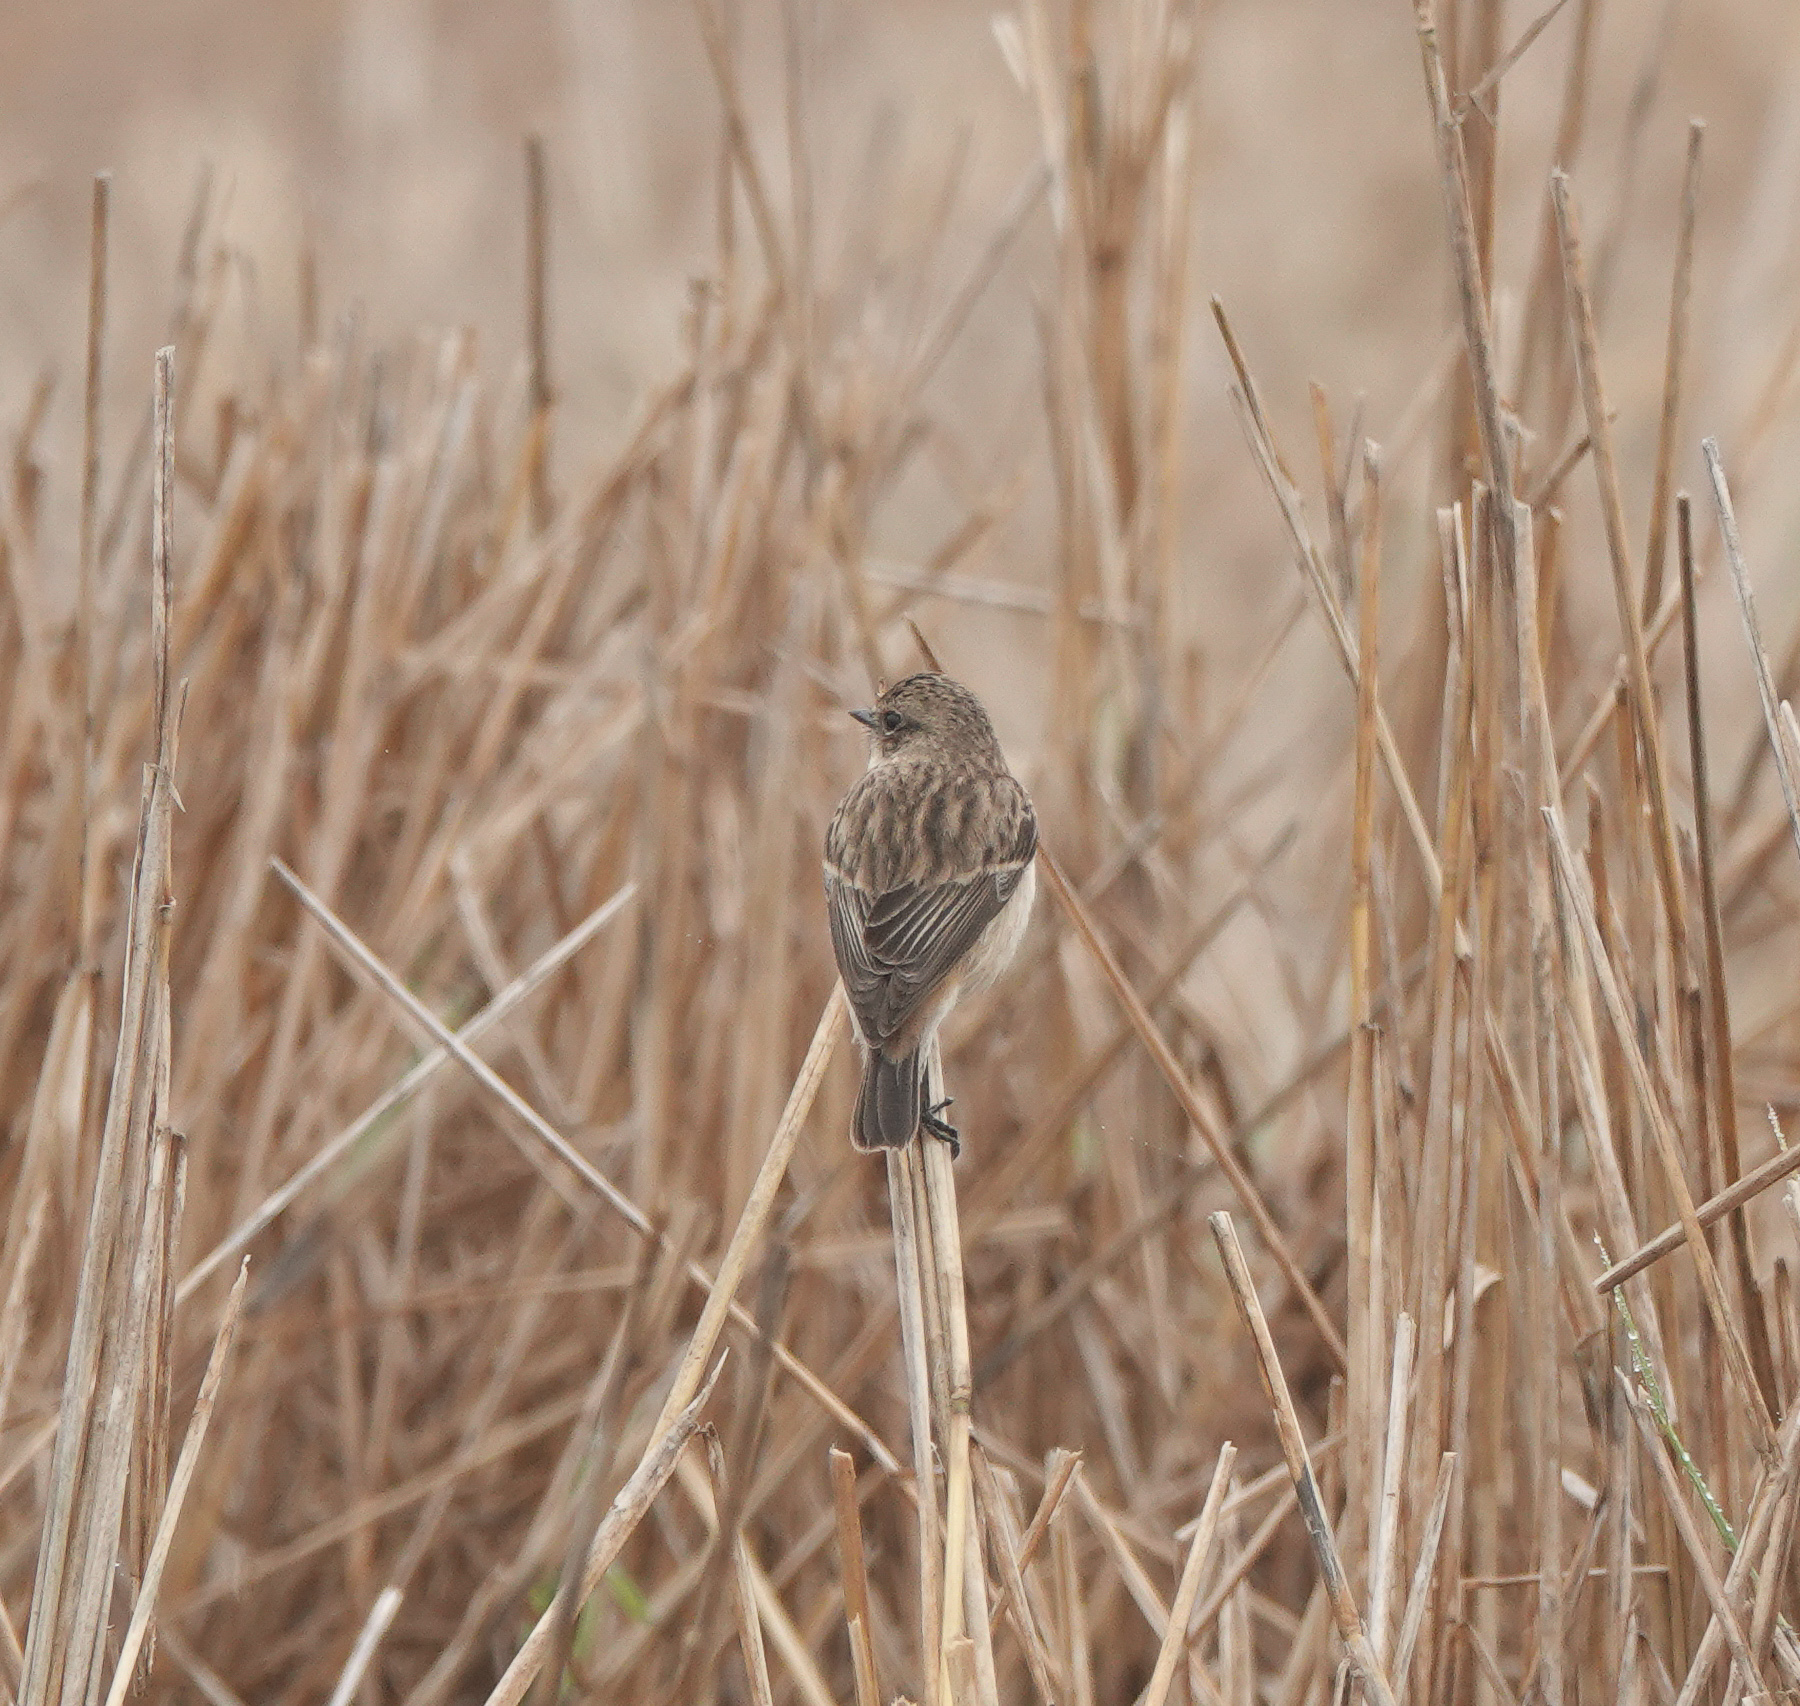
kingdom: Animalia
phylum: Chordata
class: Aves
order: Passeriformes
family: Muscicapidae
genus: Saxicola
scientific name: Saxicola maurus
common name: Siberian stonechat
